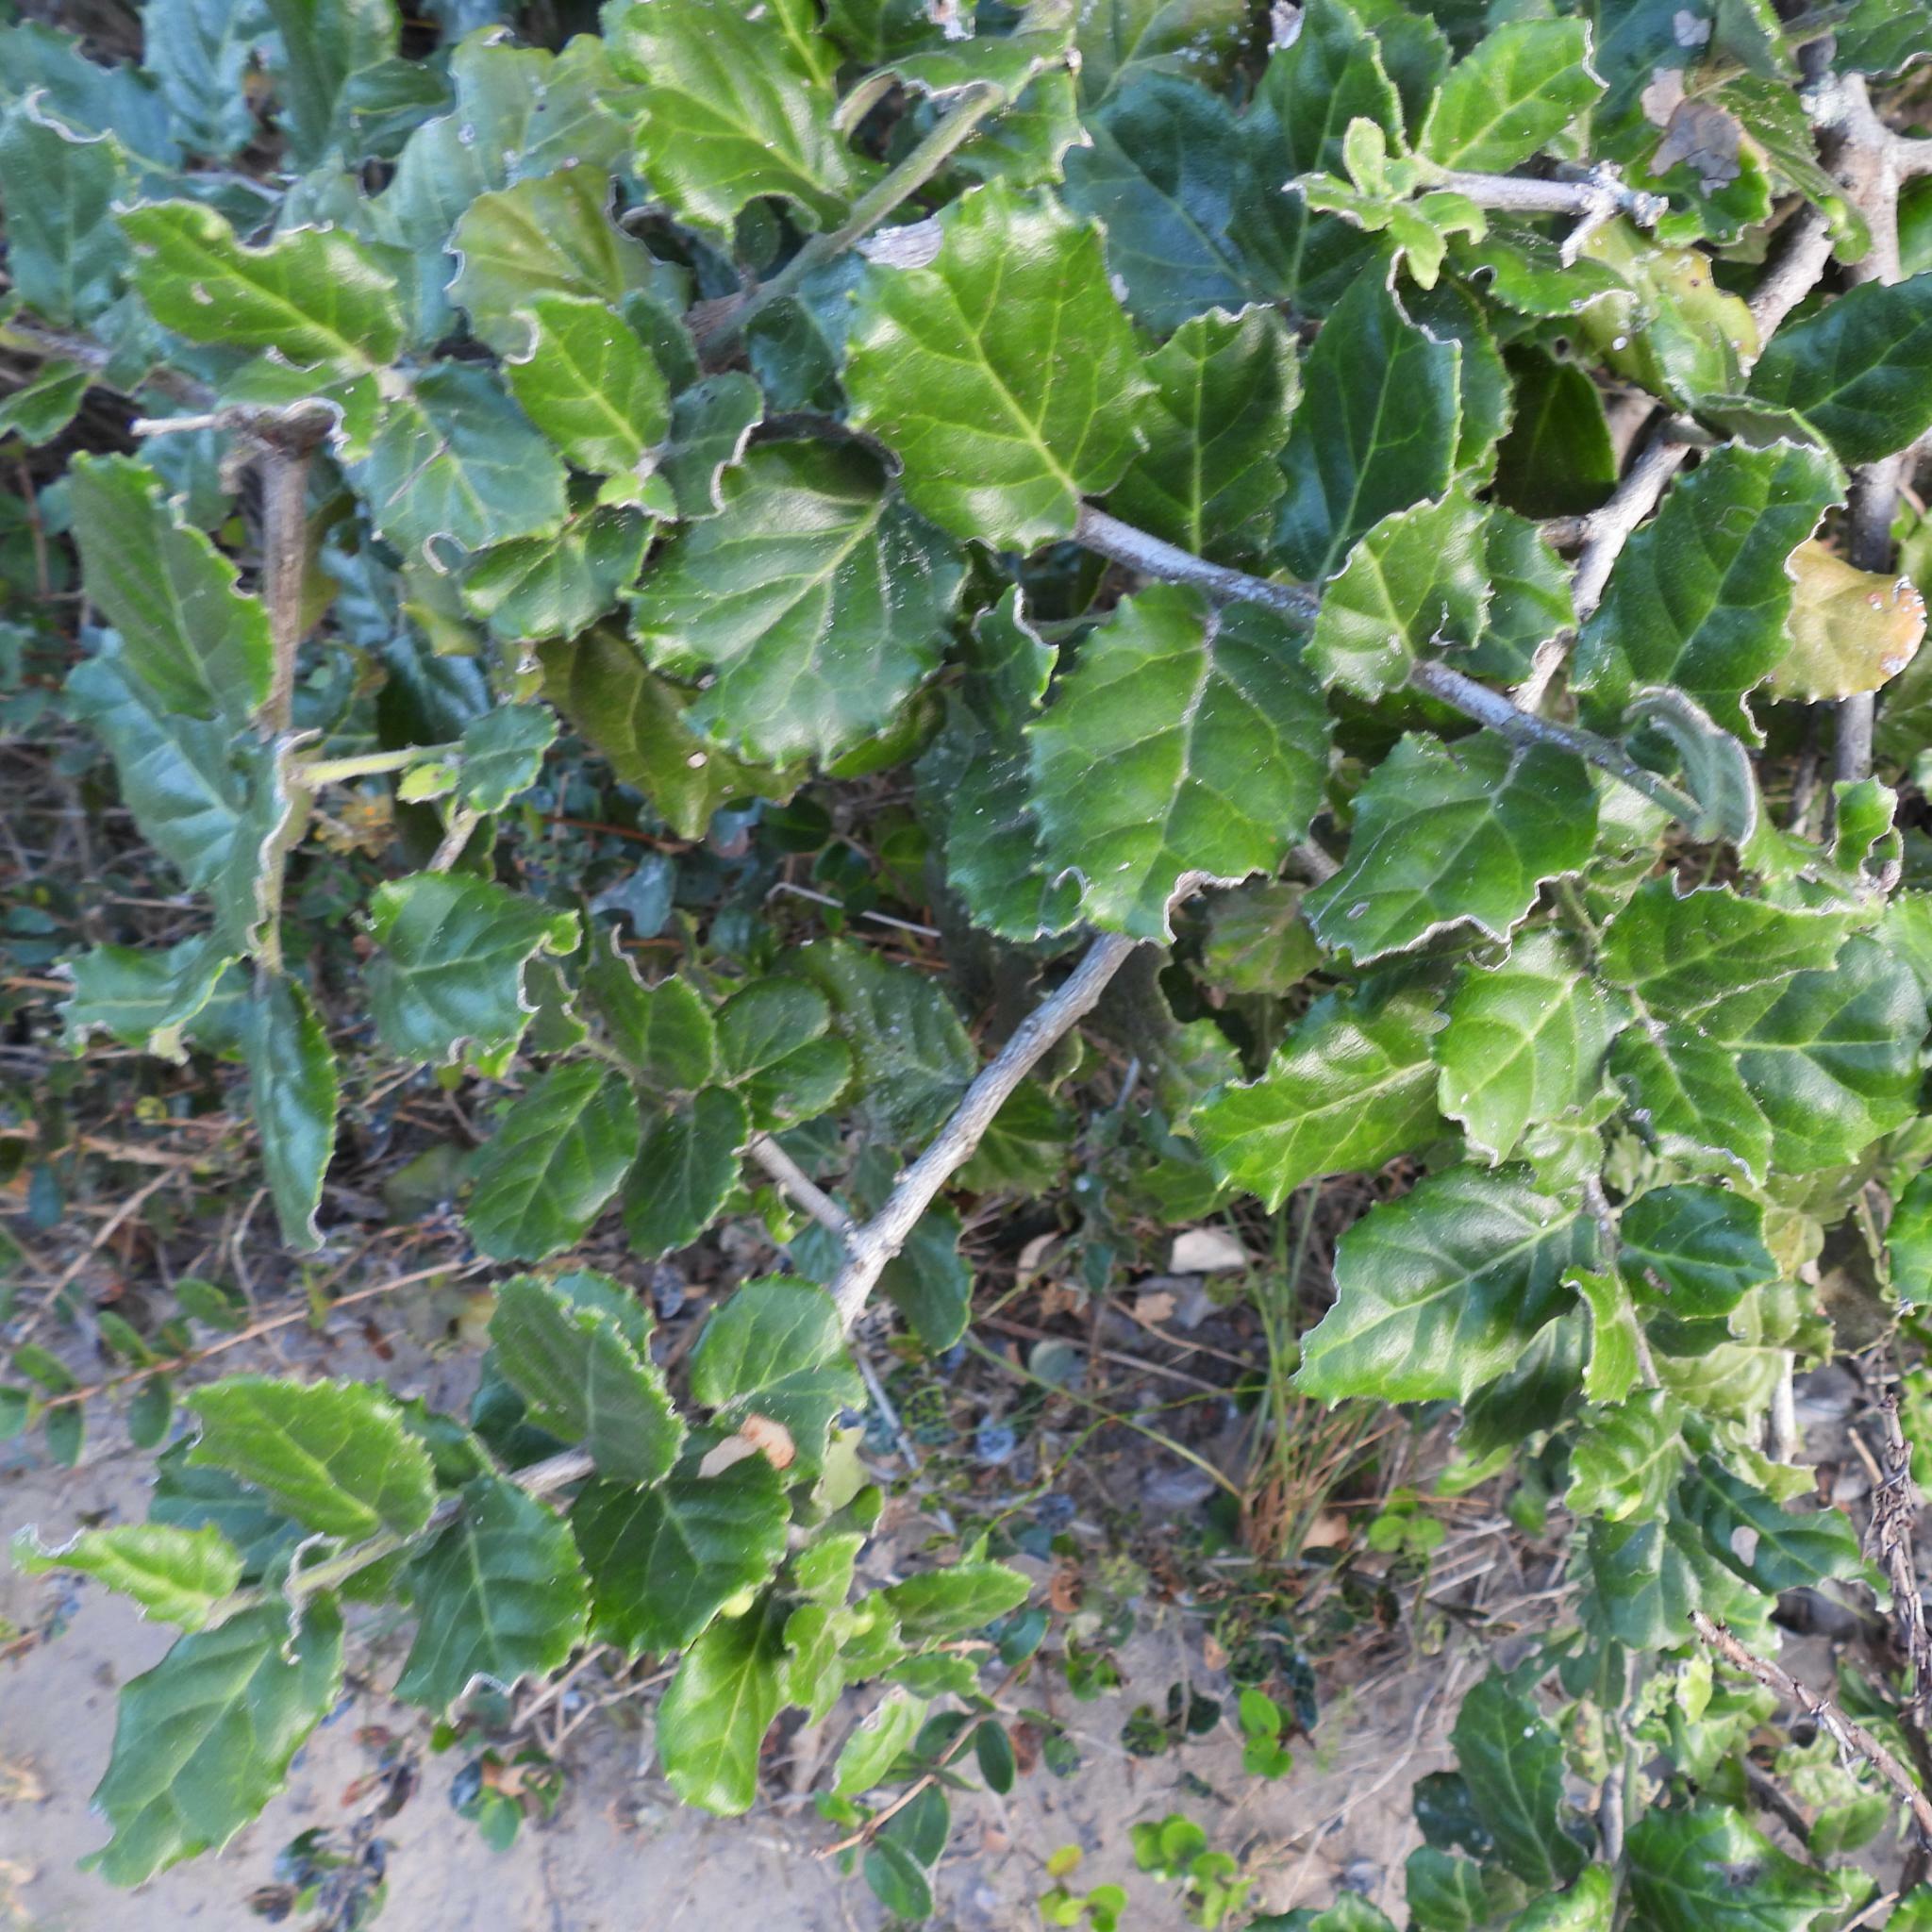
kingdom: Plantae
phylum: Tracheophyta
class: Magnoliopsida
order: Celastrales
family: Celastraceae
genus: Mystroxylon
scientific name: Mystroxylon aethiopicum
